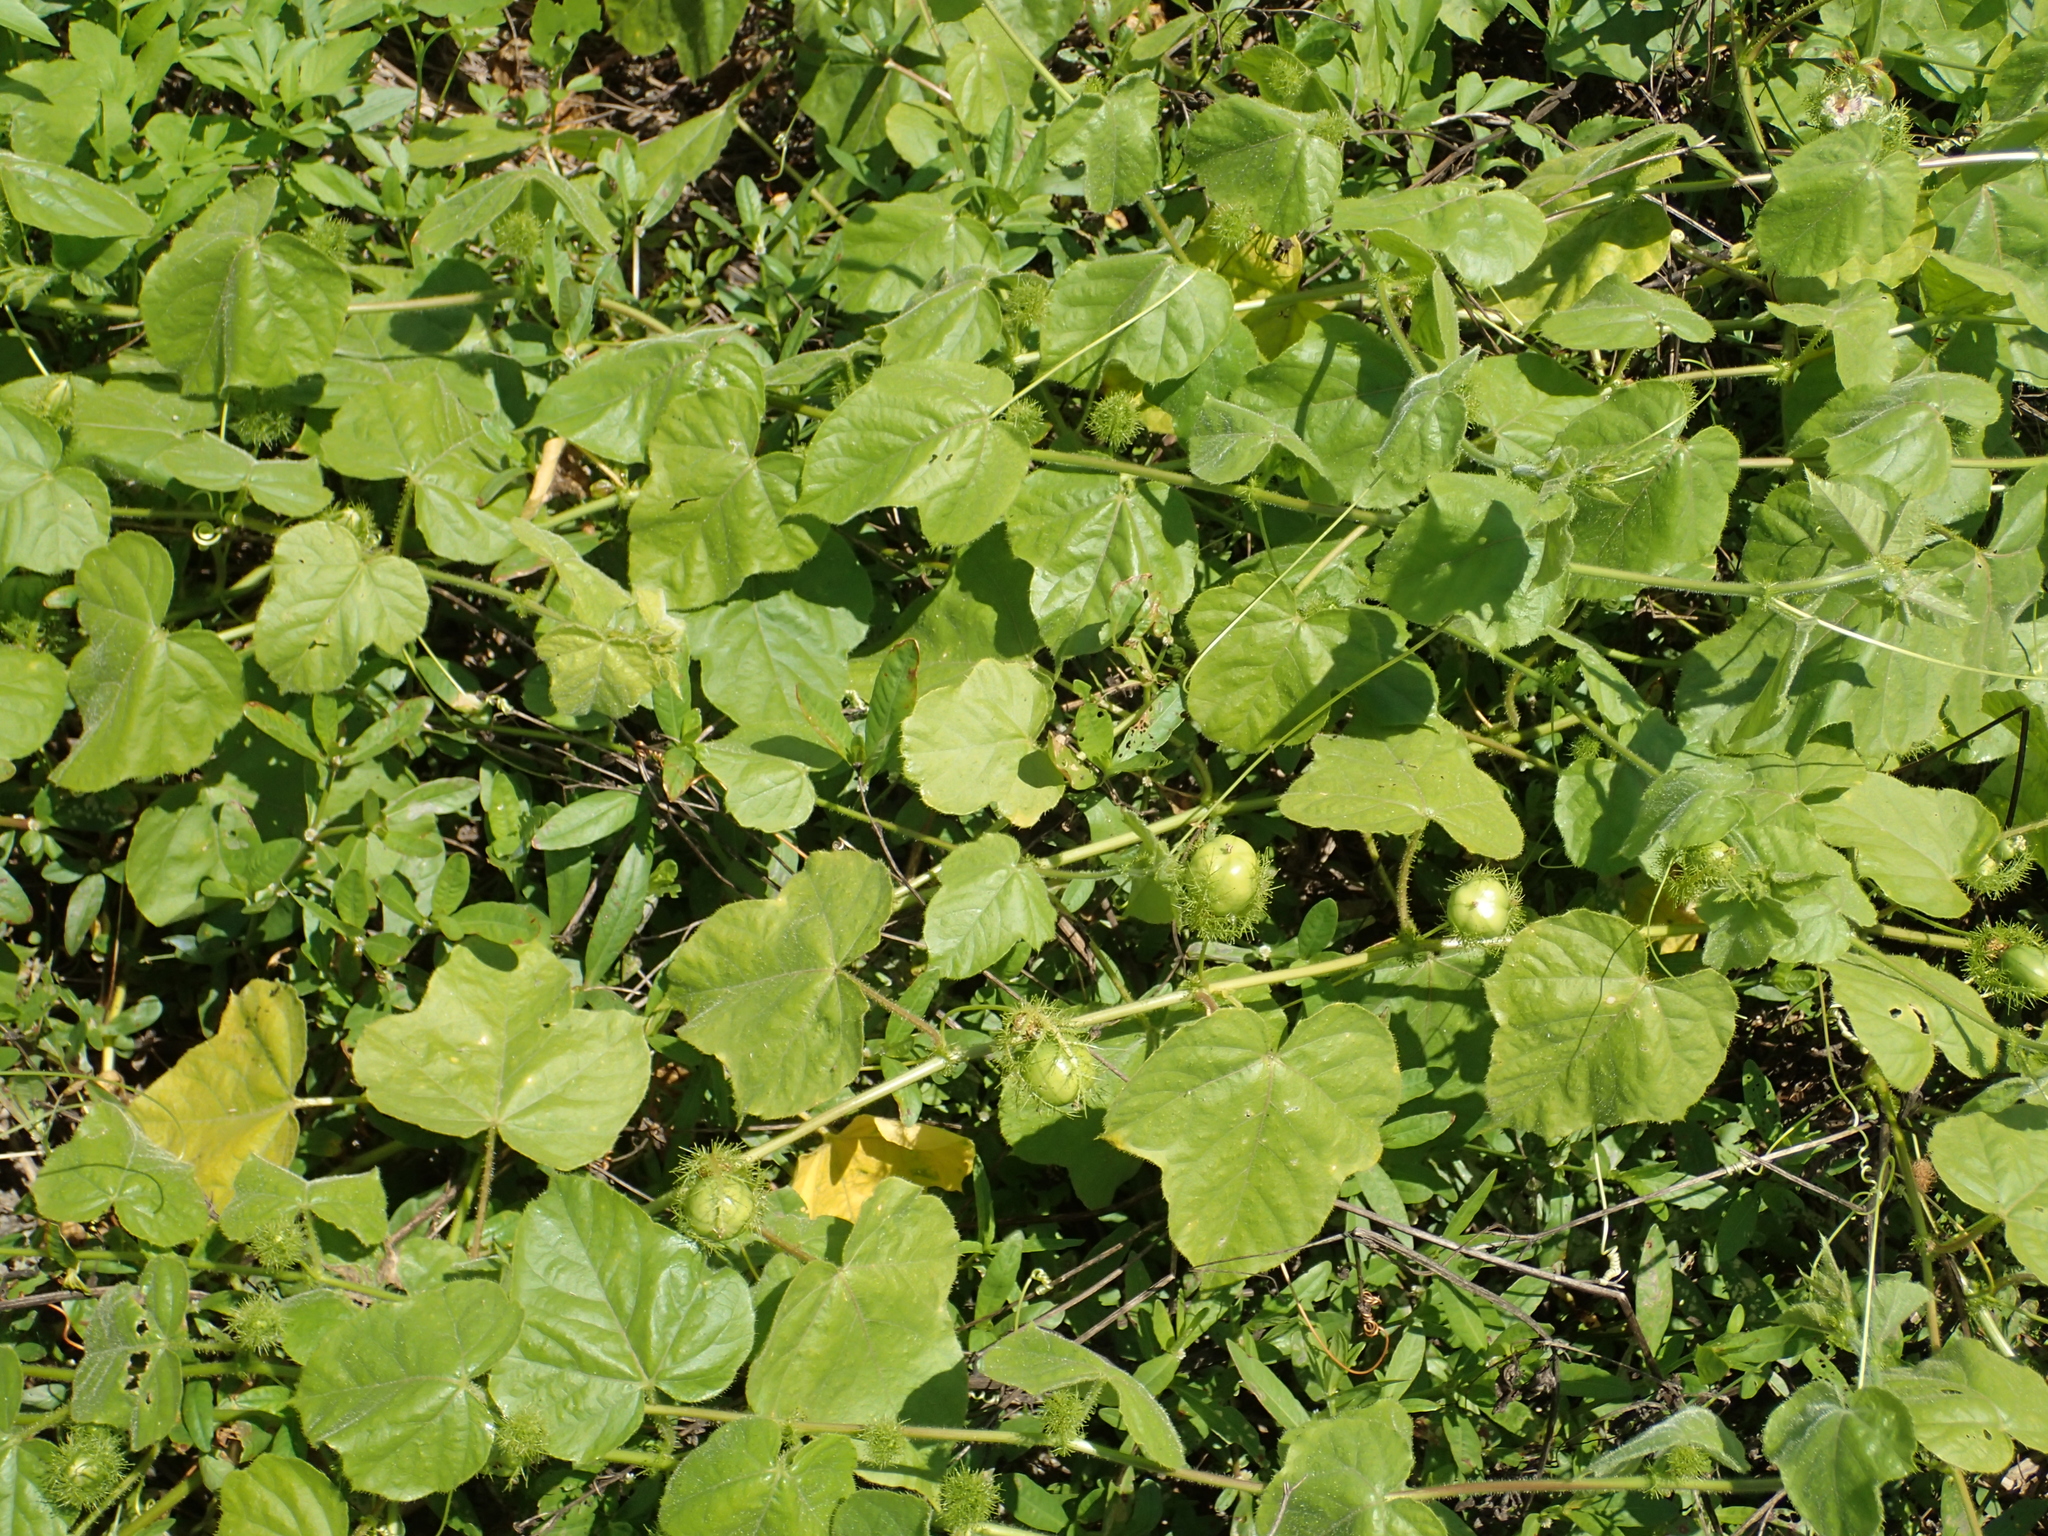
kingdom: Plantae
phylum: Tracheophyta
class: Magnoliopsida
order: Malpighiales
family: Passifloraceae
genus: Passiflora
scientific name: Passiflora vesicaria
